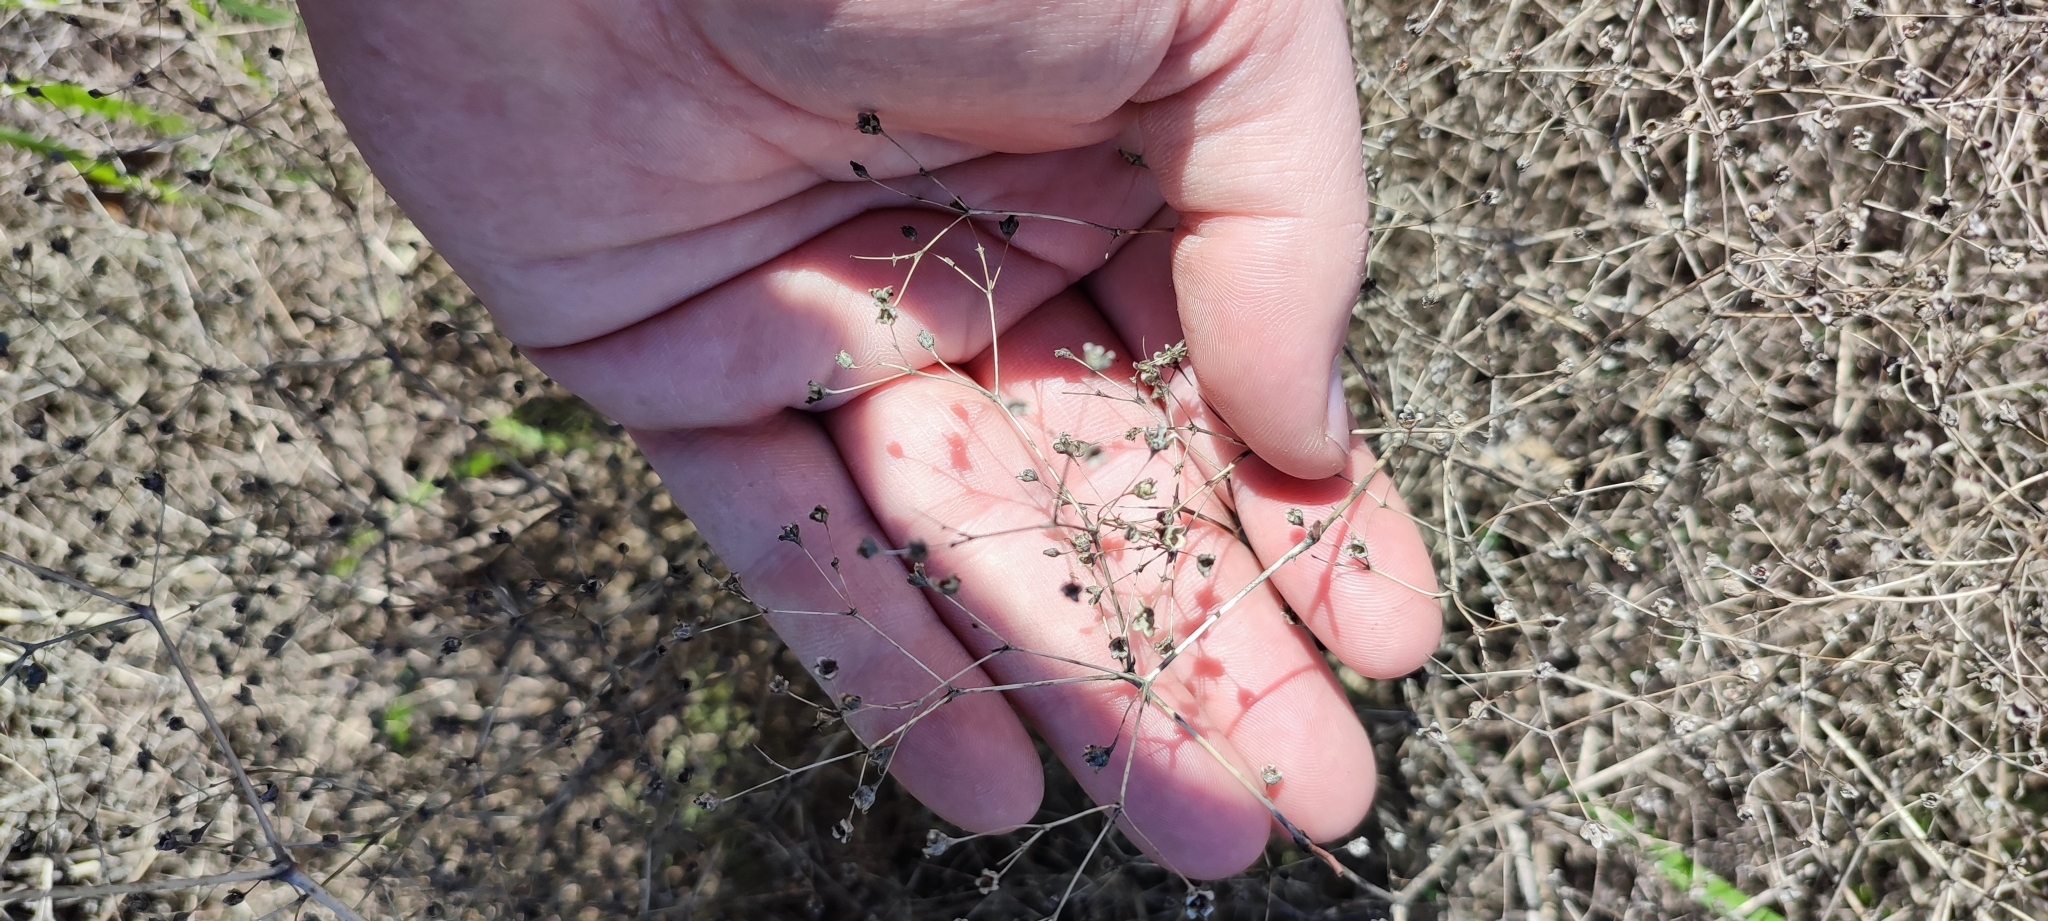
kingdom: Plantae
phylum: Tracheophyta
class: Magnoliopsida
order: Caryophyllales
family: Caryophyllaceae
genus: Gypsophila
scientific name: Gypsophila paniculata
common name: Baby's-breath
